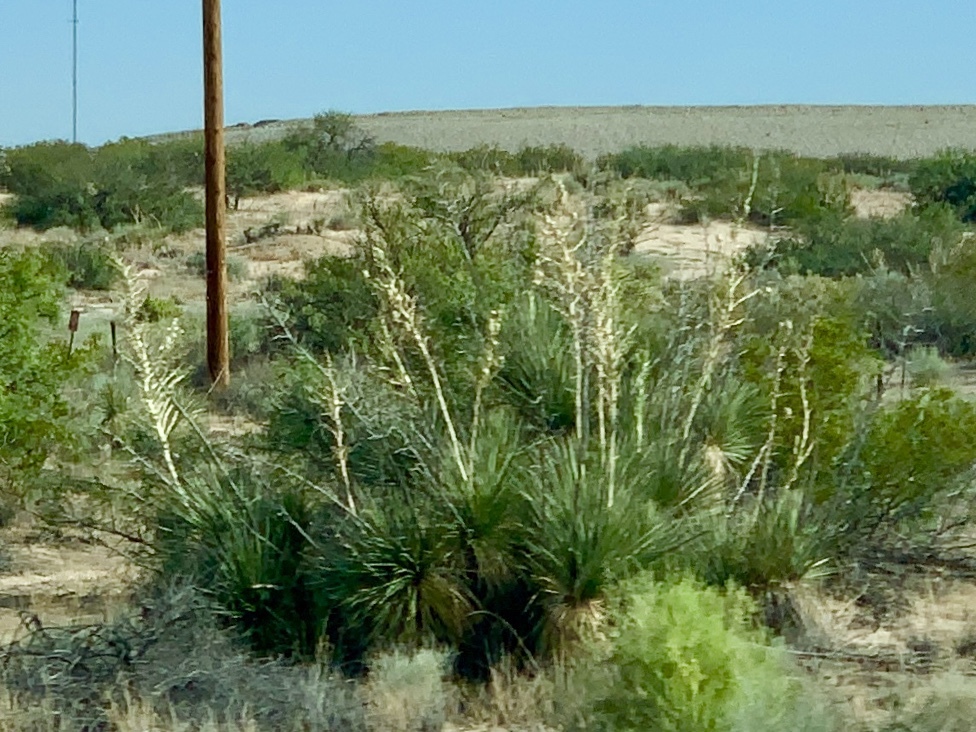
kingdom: Plantae
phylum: Tracheophyta
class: Liliopsida
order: Asparagales
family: Asparagaceae
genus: Yucca
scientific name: Yucca elata
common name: Palmella
